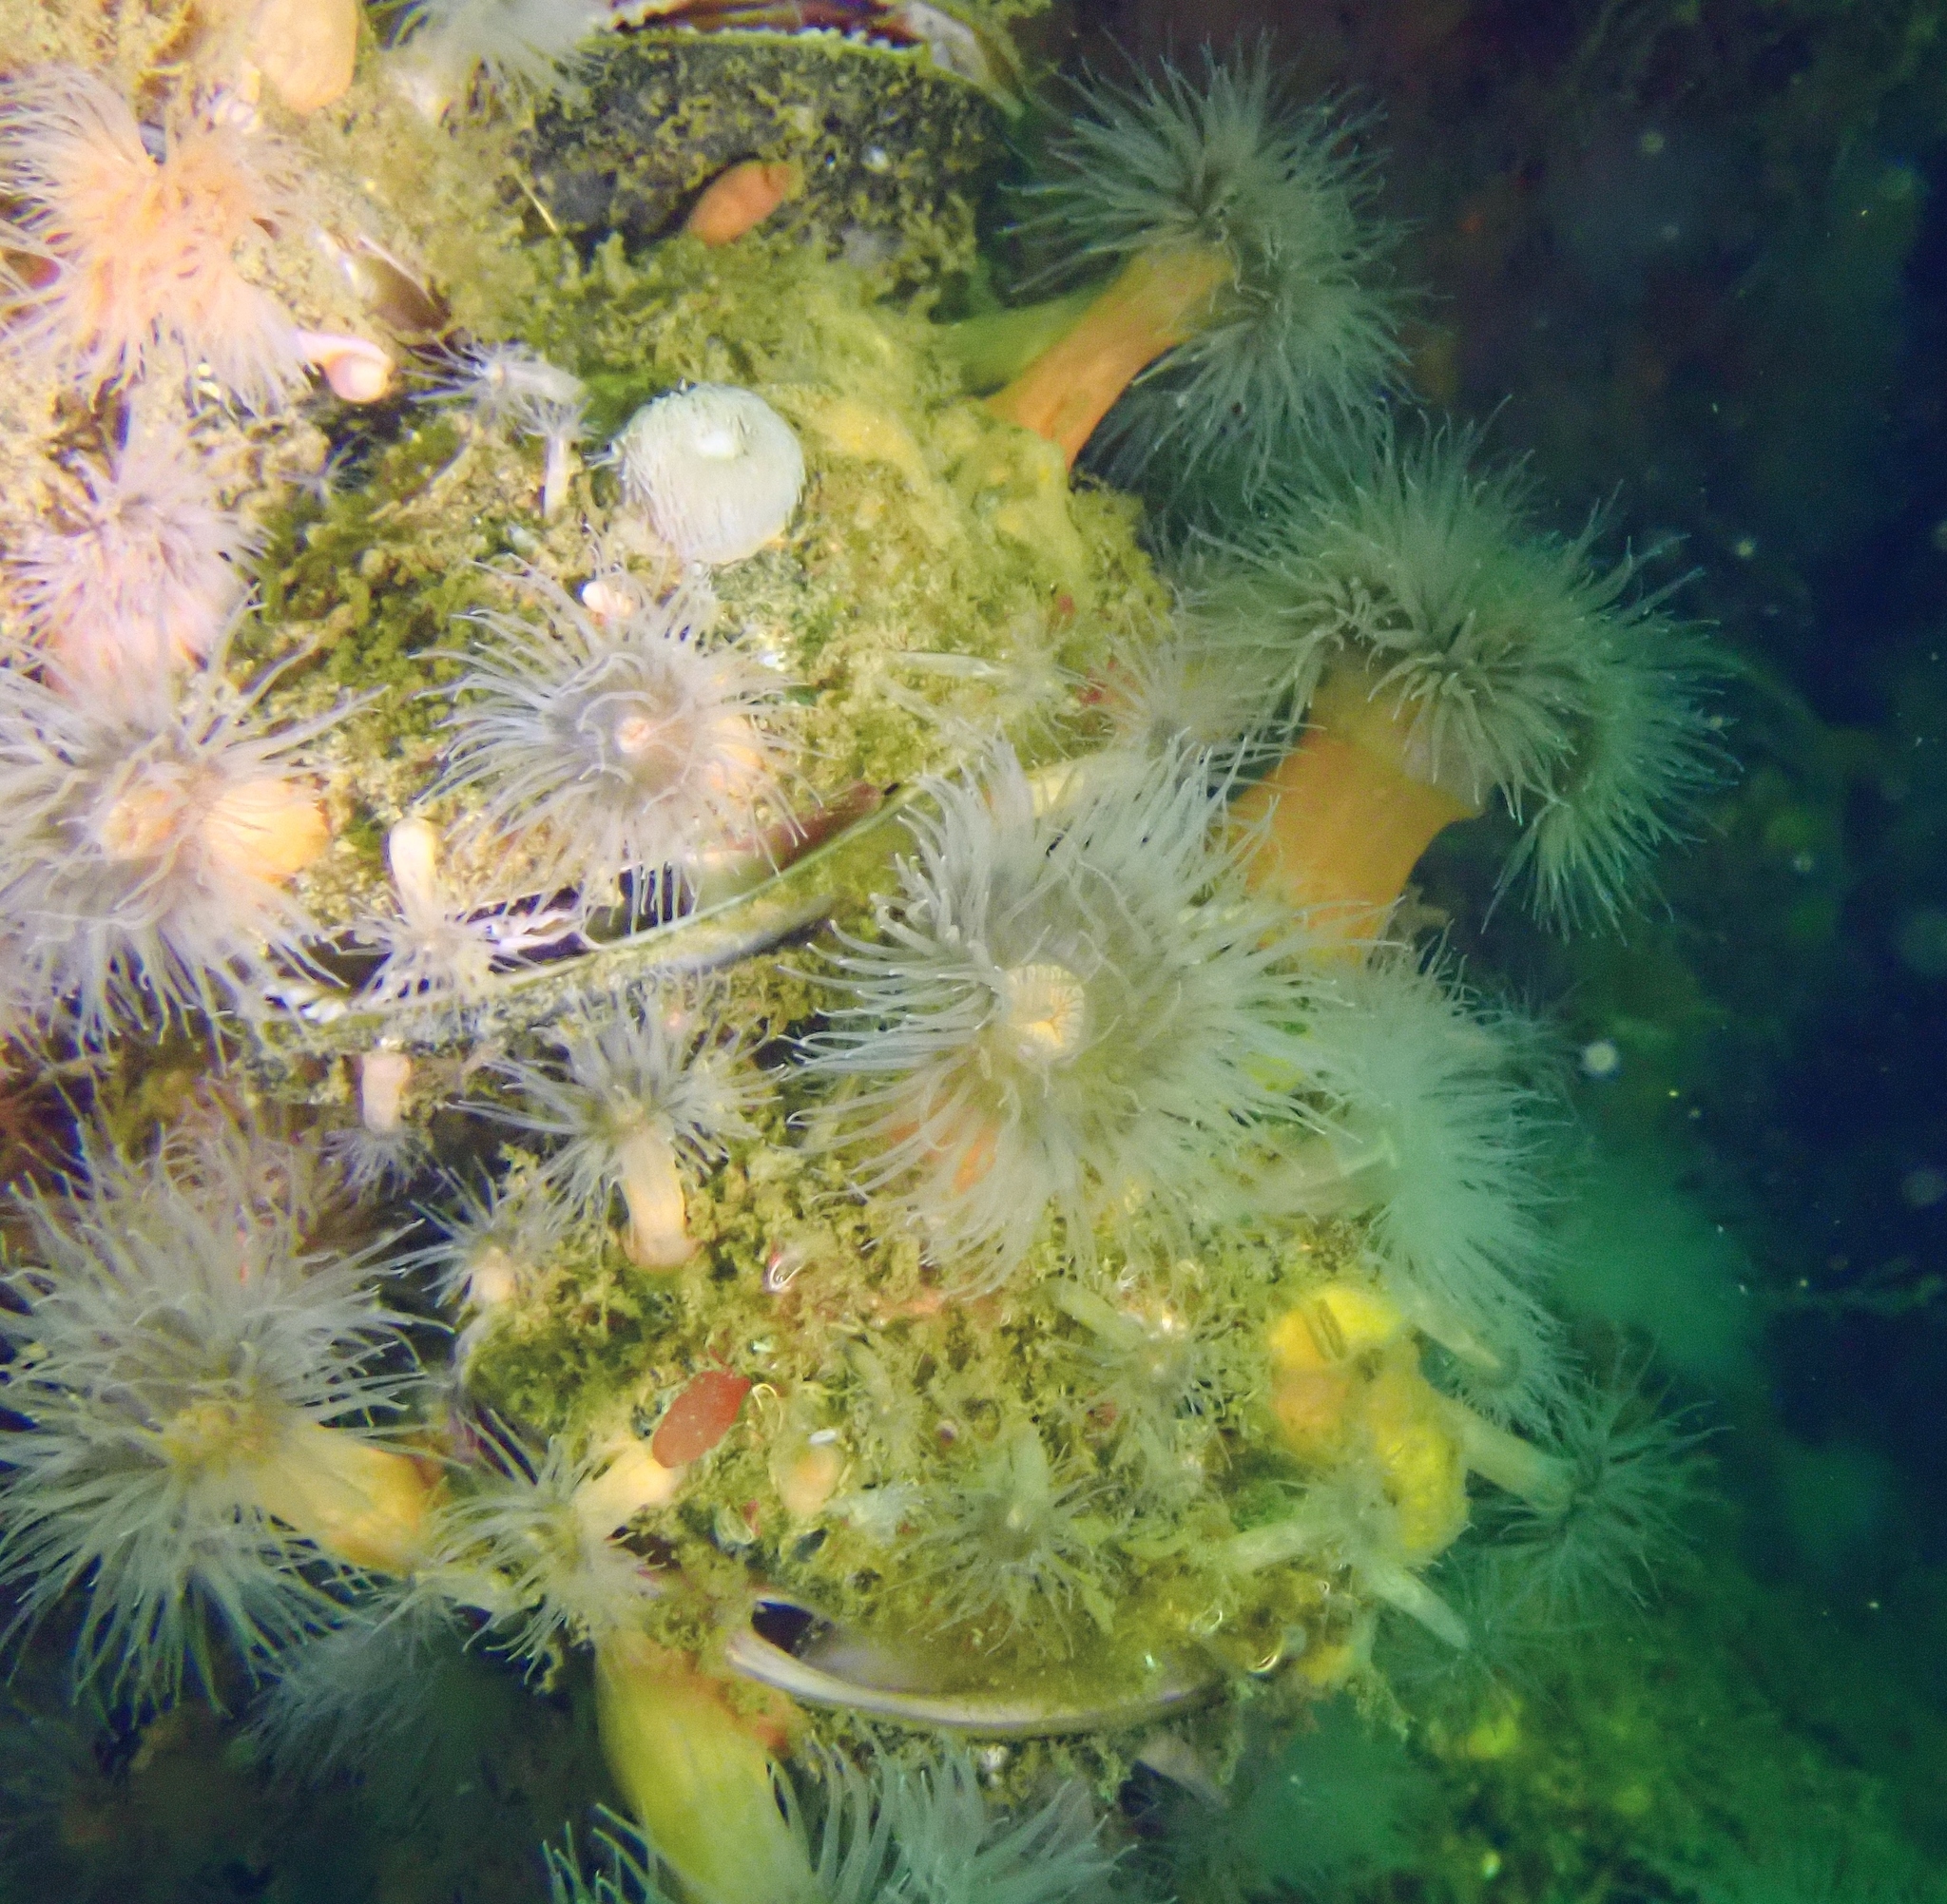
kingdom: Animalia
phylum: Cnidaria
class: Anthozoa
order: Actiniaria
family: Metridiidae
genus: Metridium
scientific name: Metridium senile
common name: Clonal plumose anemone
